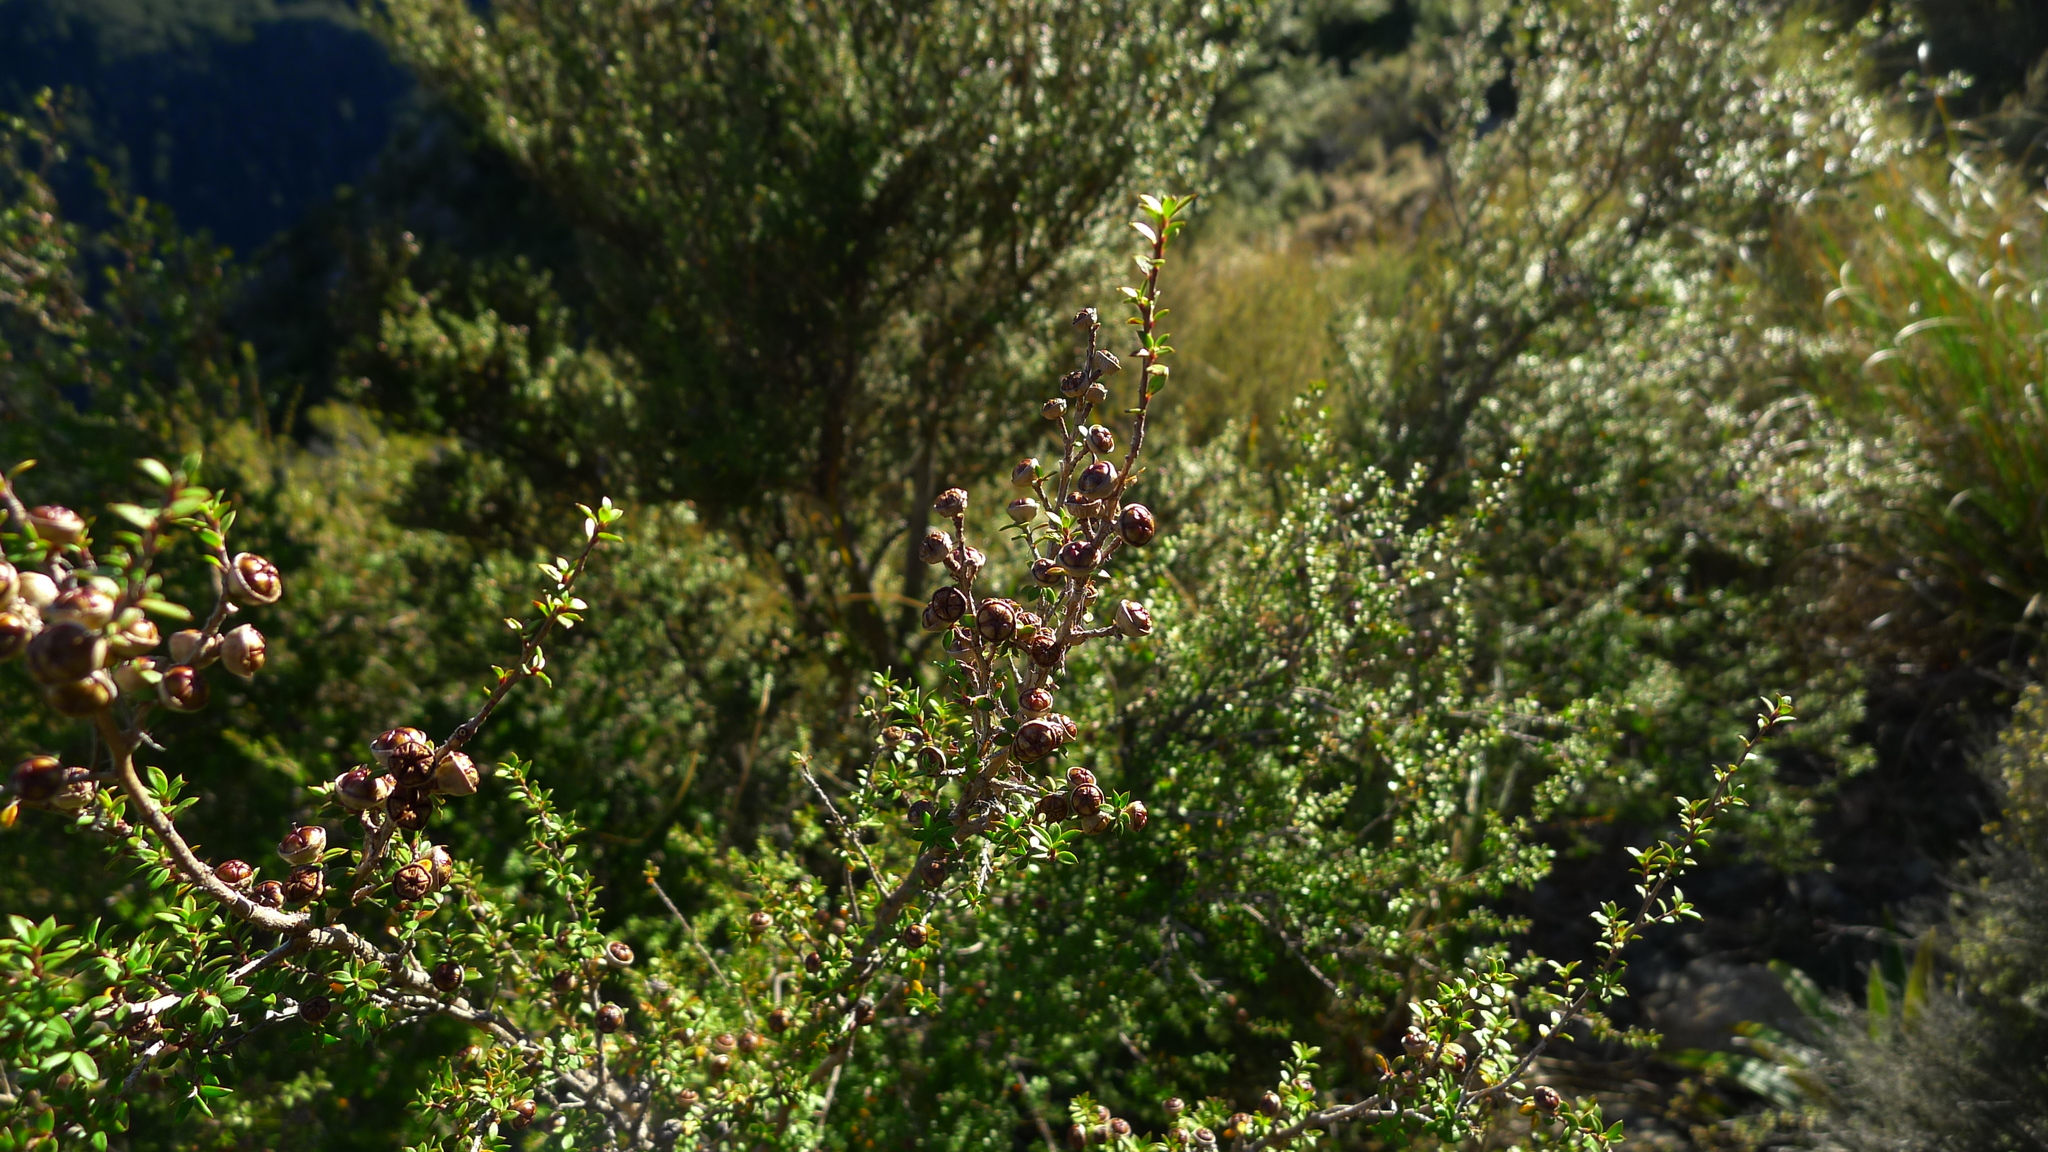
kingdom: Plantae
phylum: Tracheophyta
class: Magnoliopsida
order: Myrtales
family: Myrtaceae
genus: Leptospermum
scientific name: Leptospermum scoparium
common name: Broom tea-tree
